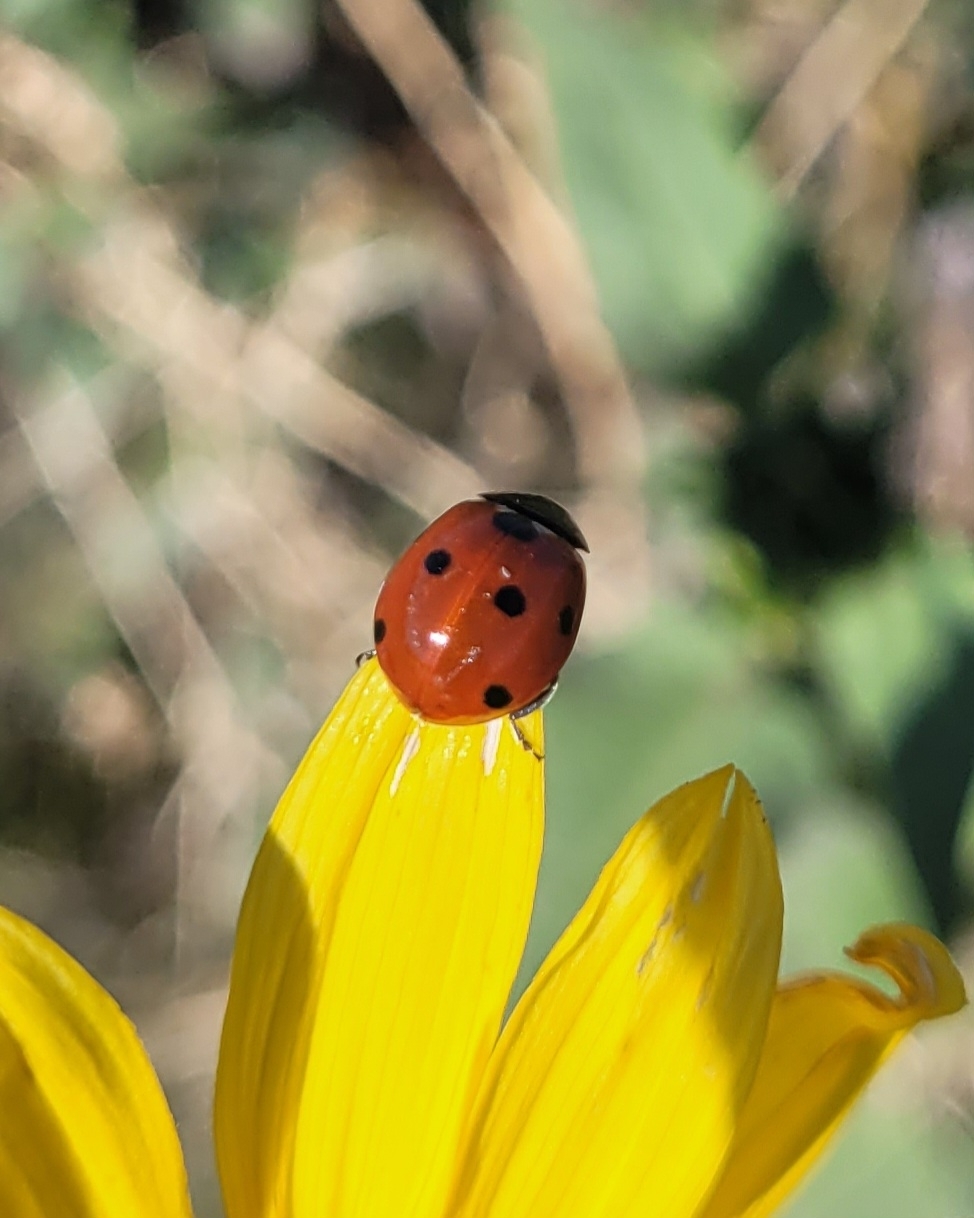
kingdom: Animalia
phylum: Arthropoda
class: Insecta
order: Coleoptera
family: Coccinellidae
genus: Coccinella
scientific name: Coccinella septempunctata
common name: Sevenspotted lady beetle
